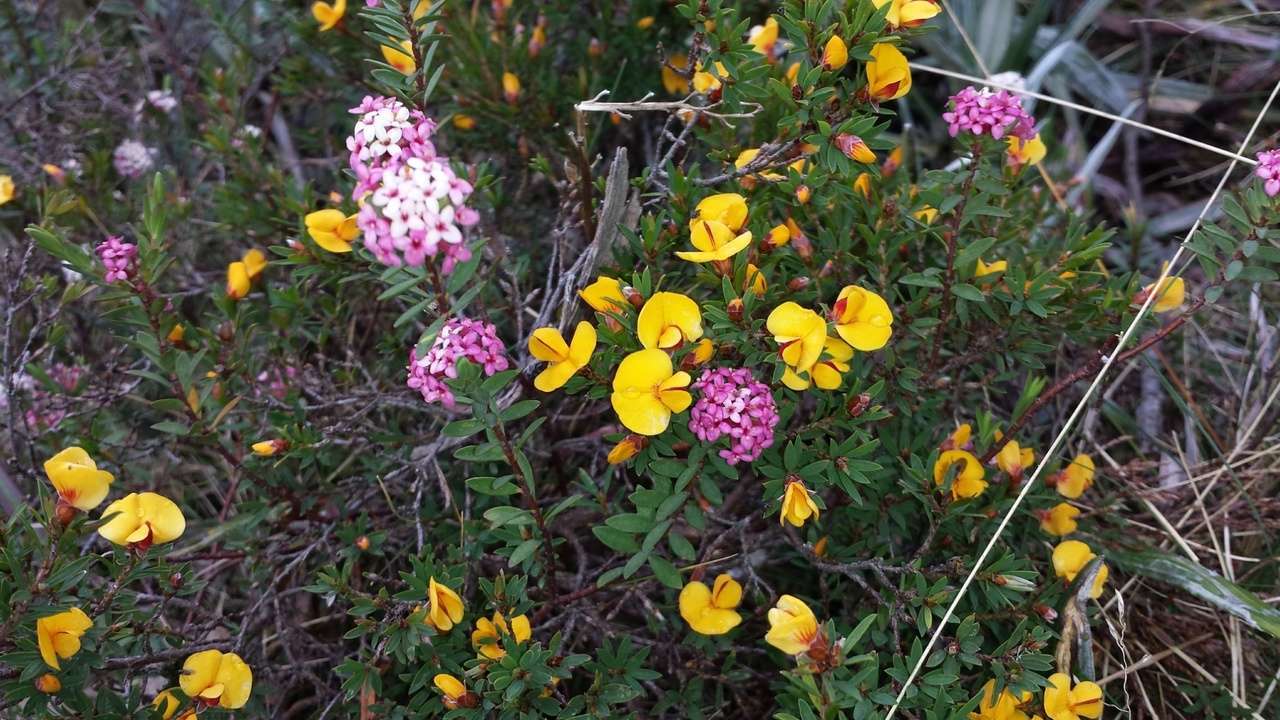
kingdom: Plantae
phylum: Tracheophyta
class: Magnoliopsida
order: Malvales
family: Thymelaeaceae
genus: Pimelea
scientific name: Pimelea alpina
